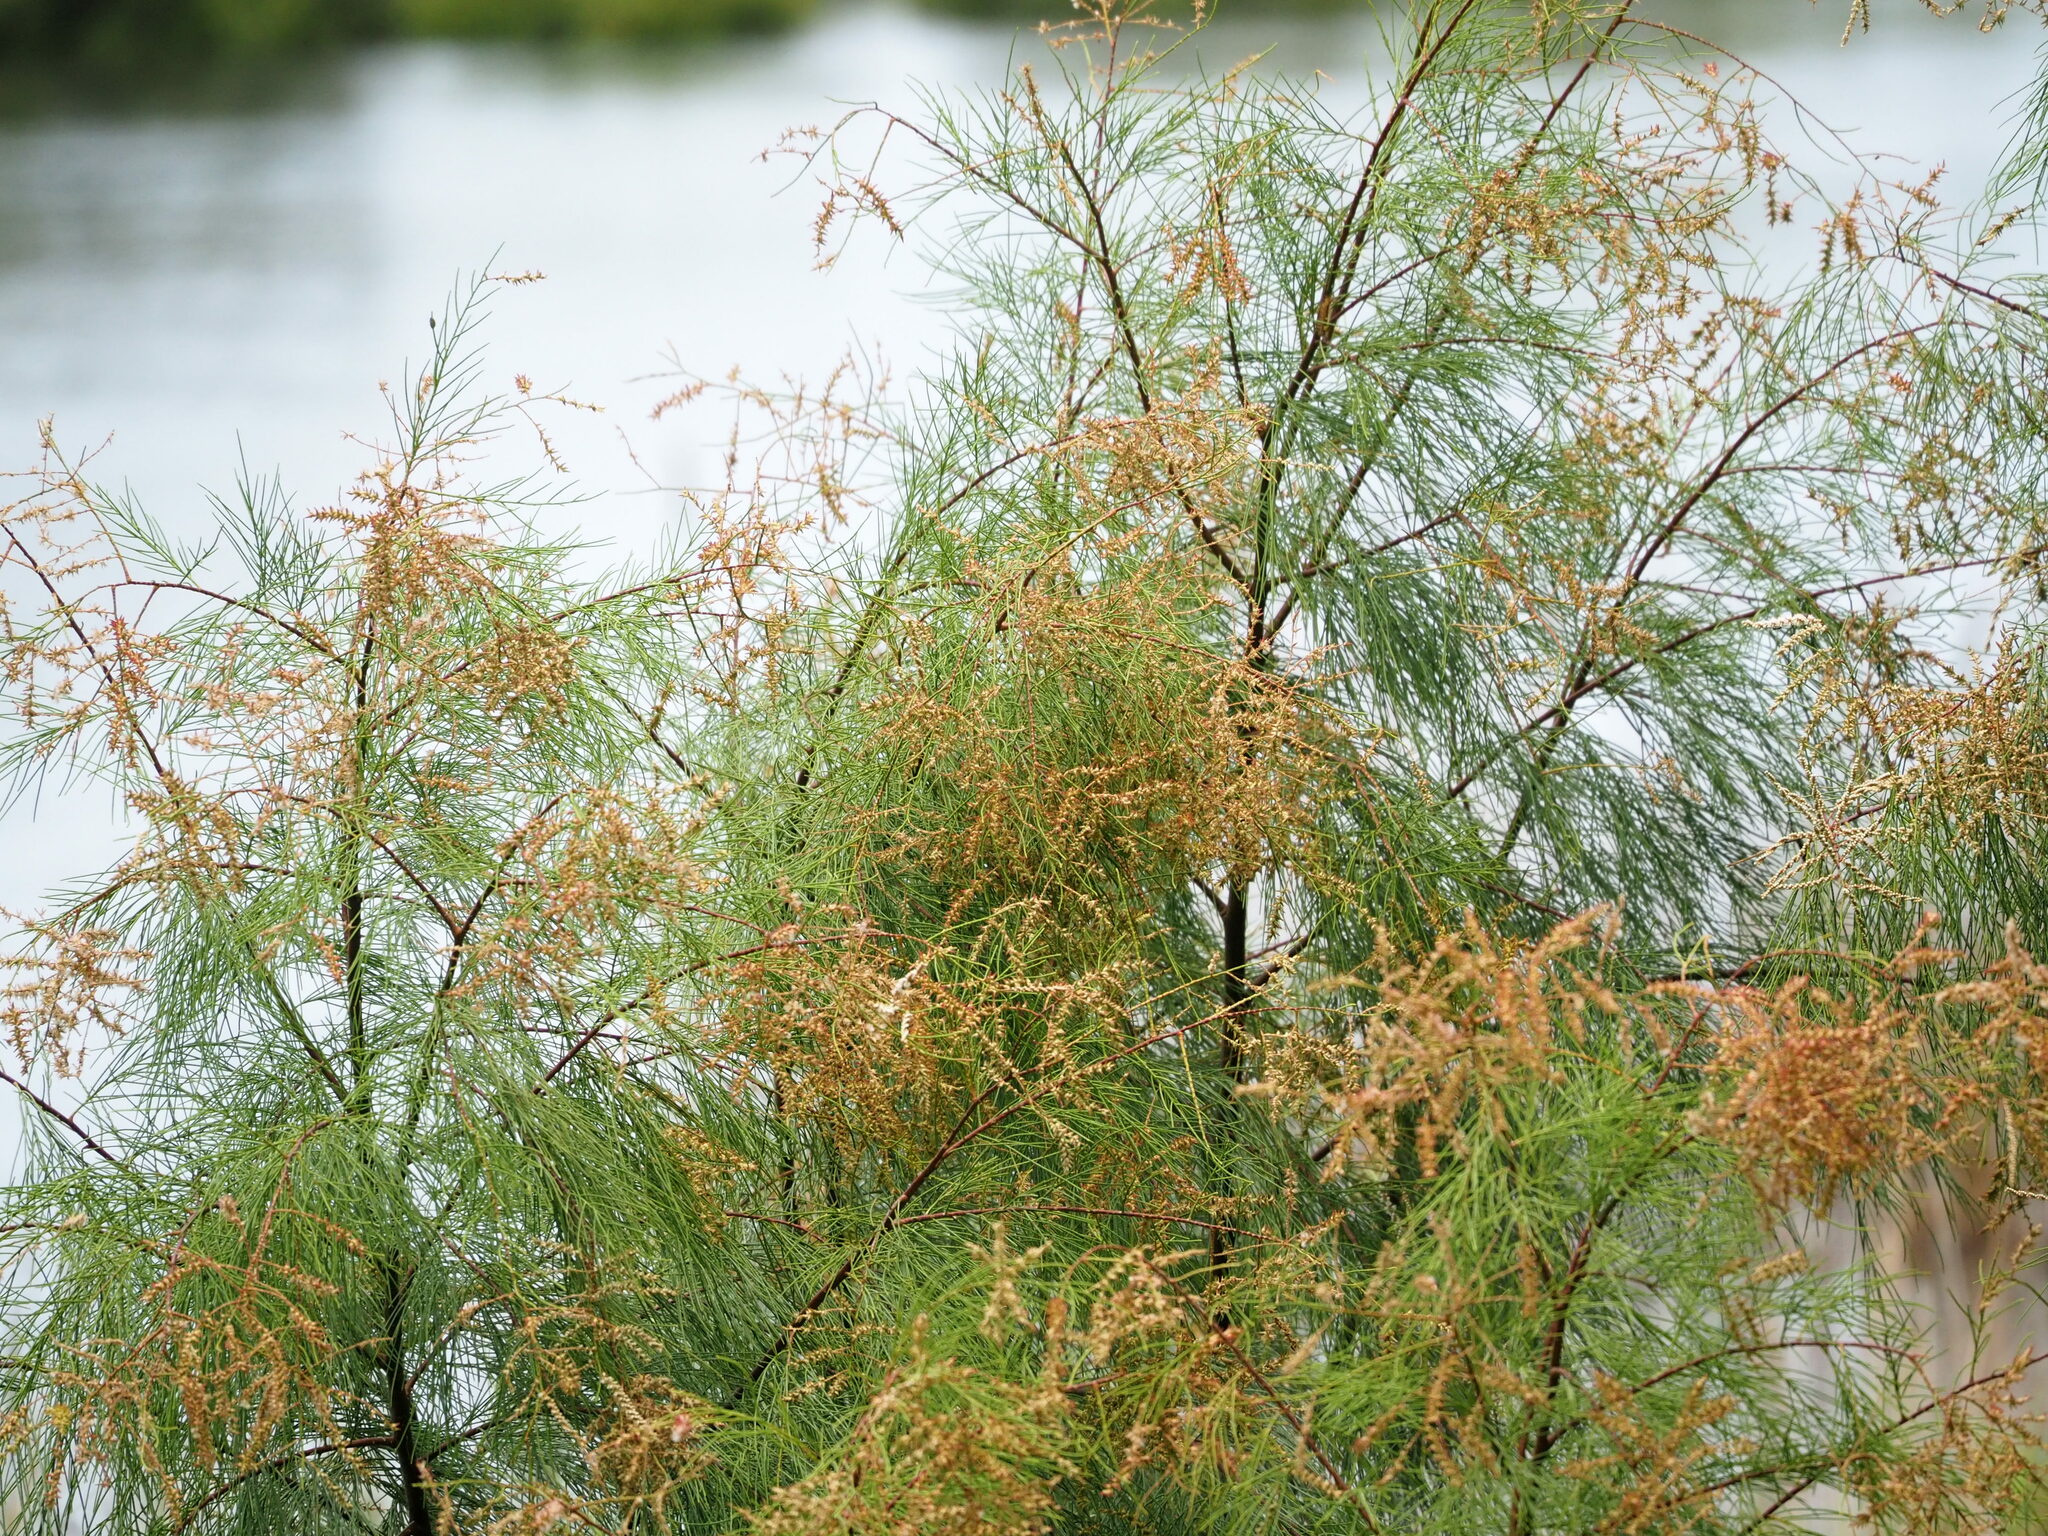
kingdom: Plantae
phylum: Tracheophyta
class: Magnoliopsida
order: Caryophyllales
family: Tamaricaceae
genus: Tamarix
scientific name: Tamarix aphylla
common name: Athel tamarisk
